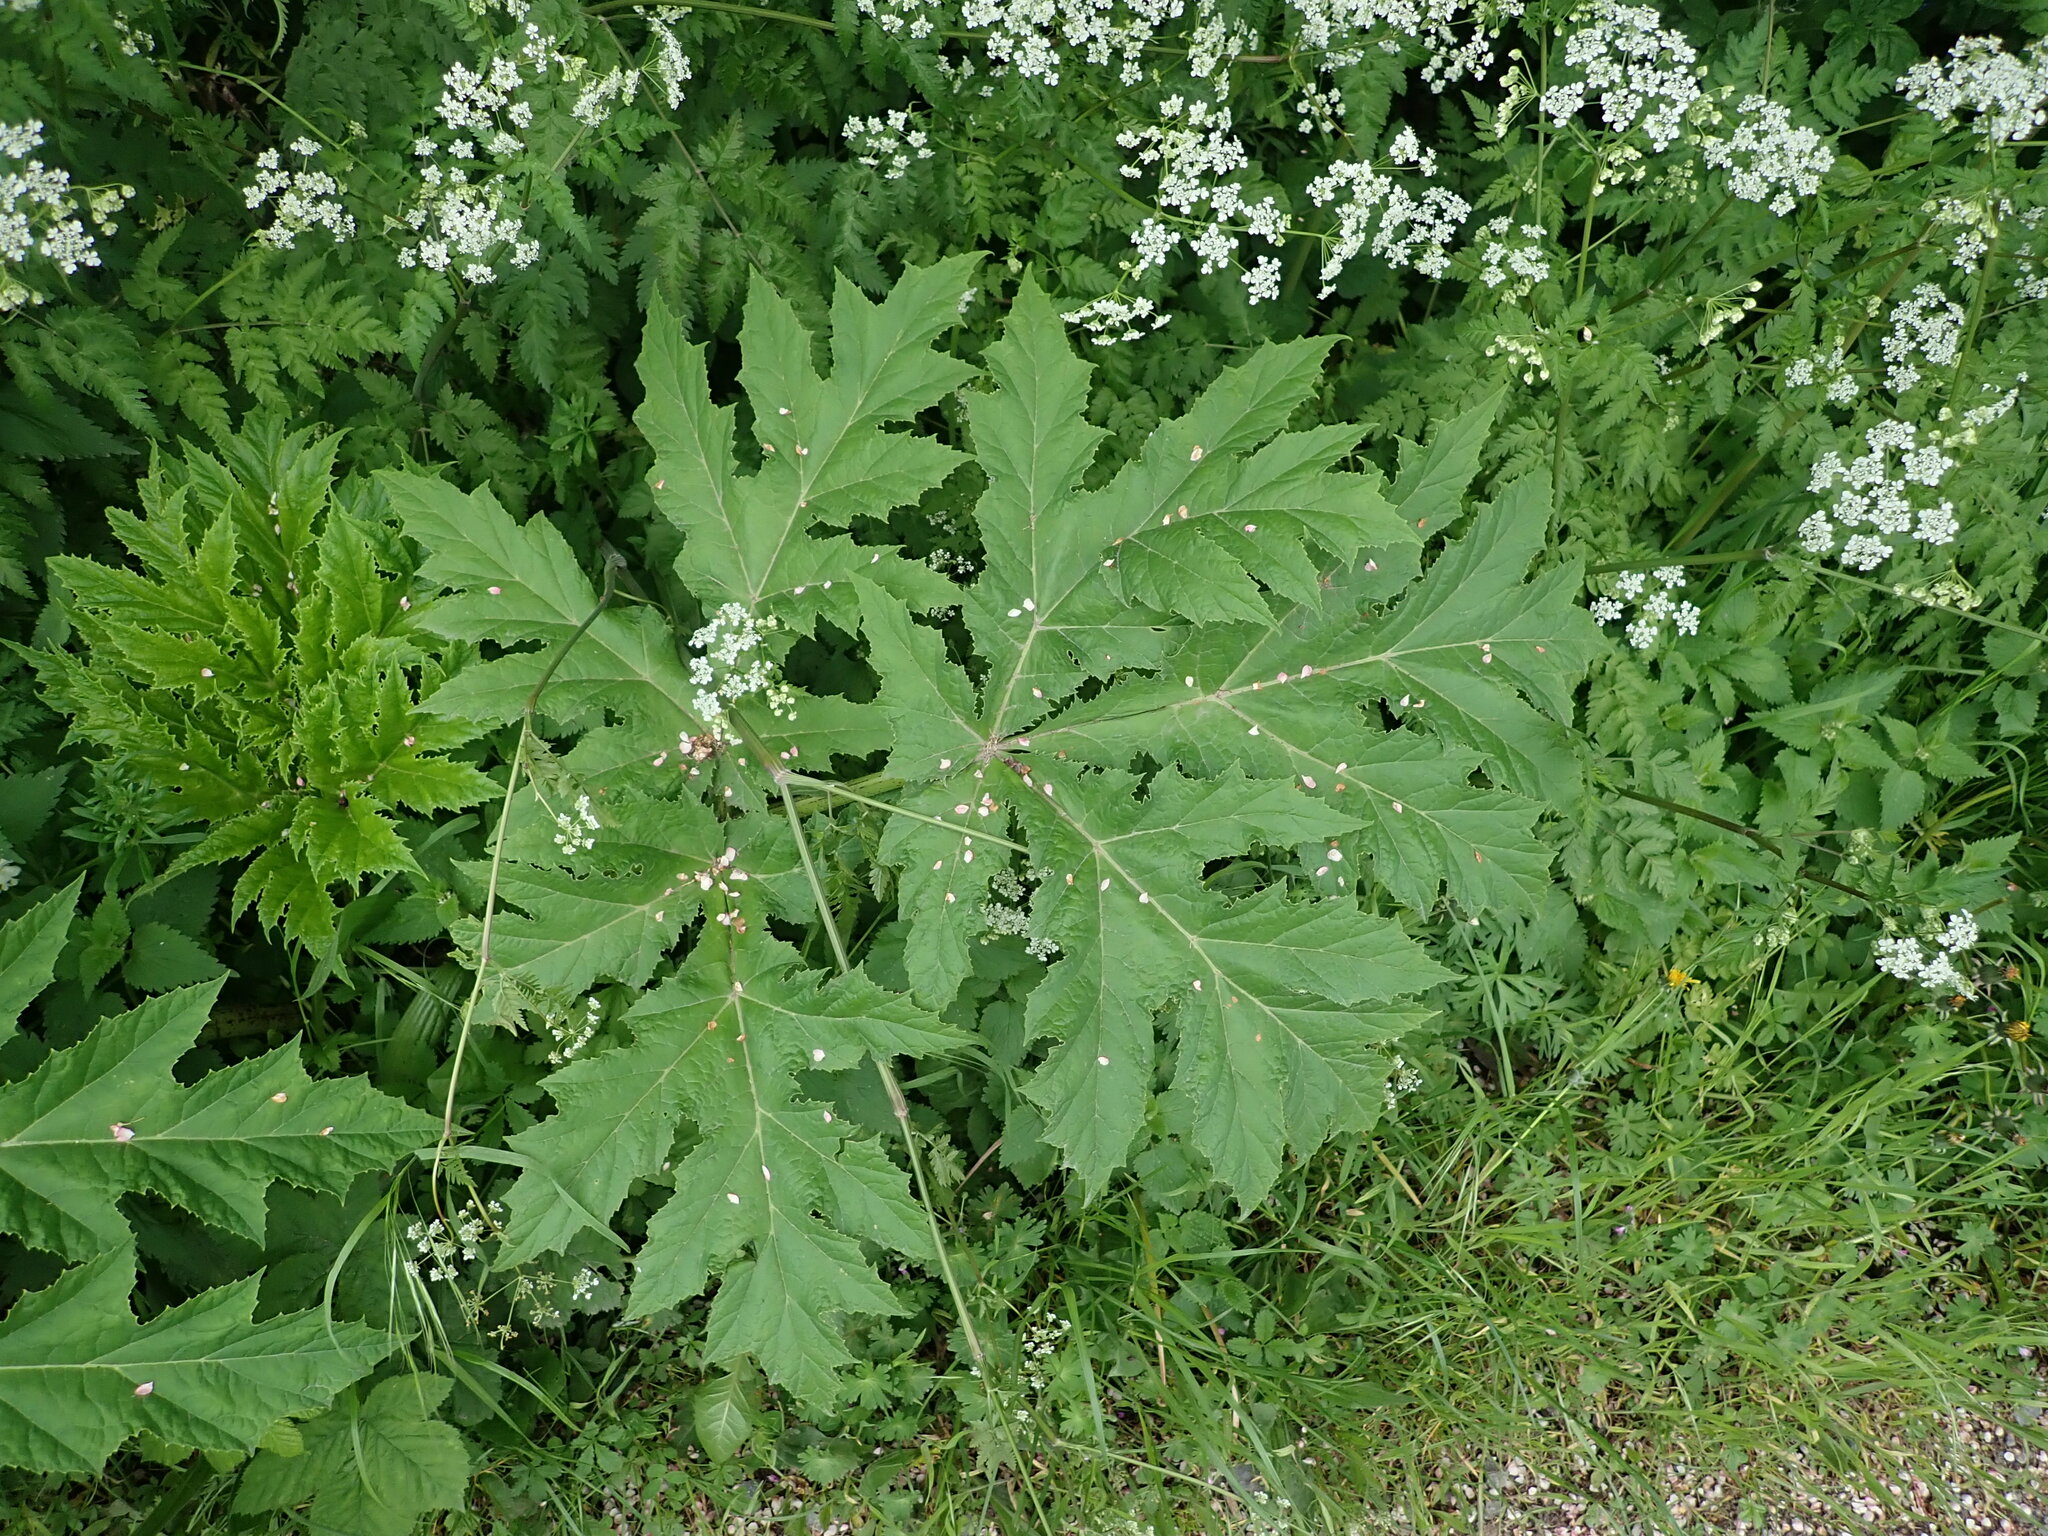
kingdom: Plantae
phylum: Tracheophyta
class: Magnoliopsida
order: Apiales
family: Apiaceae
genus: Heracleum
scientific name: Heracleum mantegazzianum
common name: Giant hogweed
